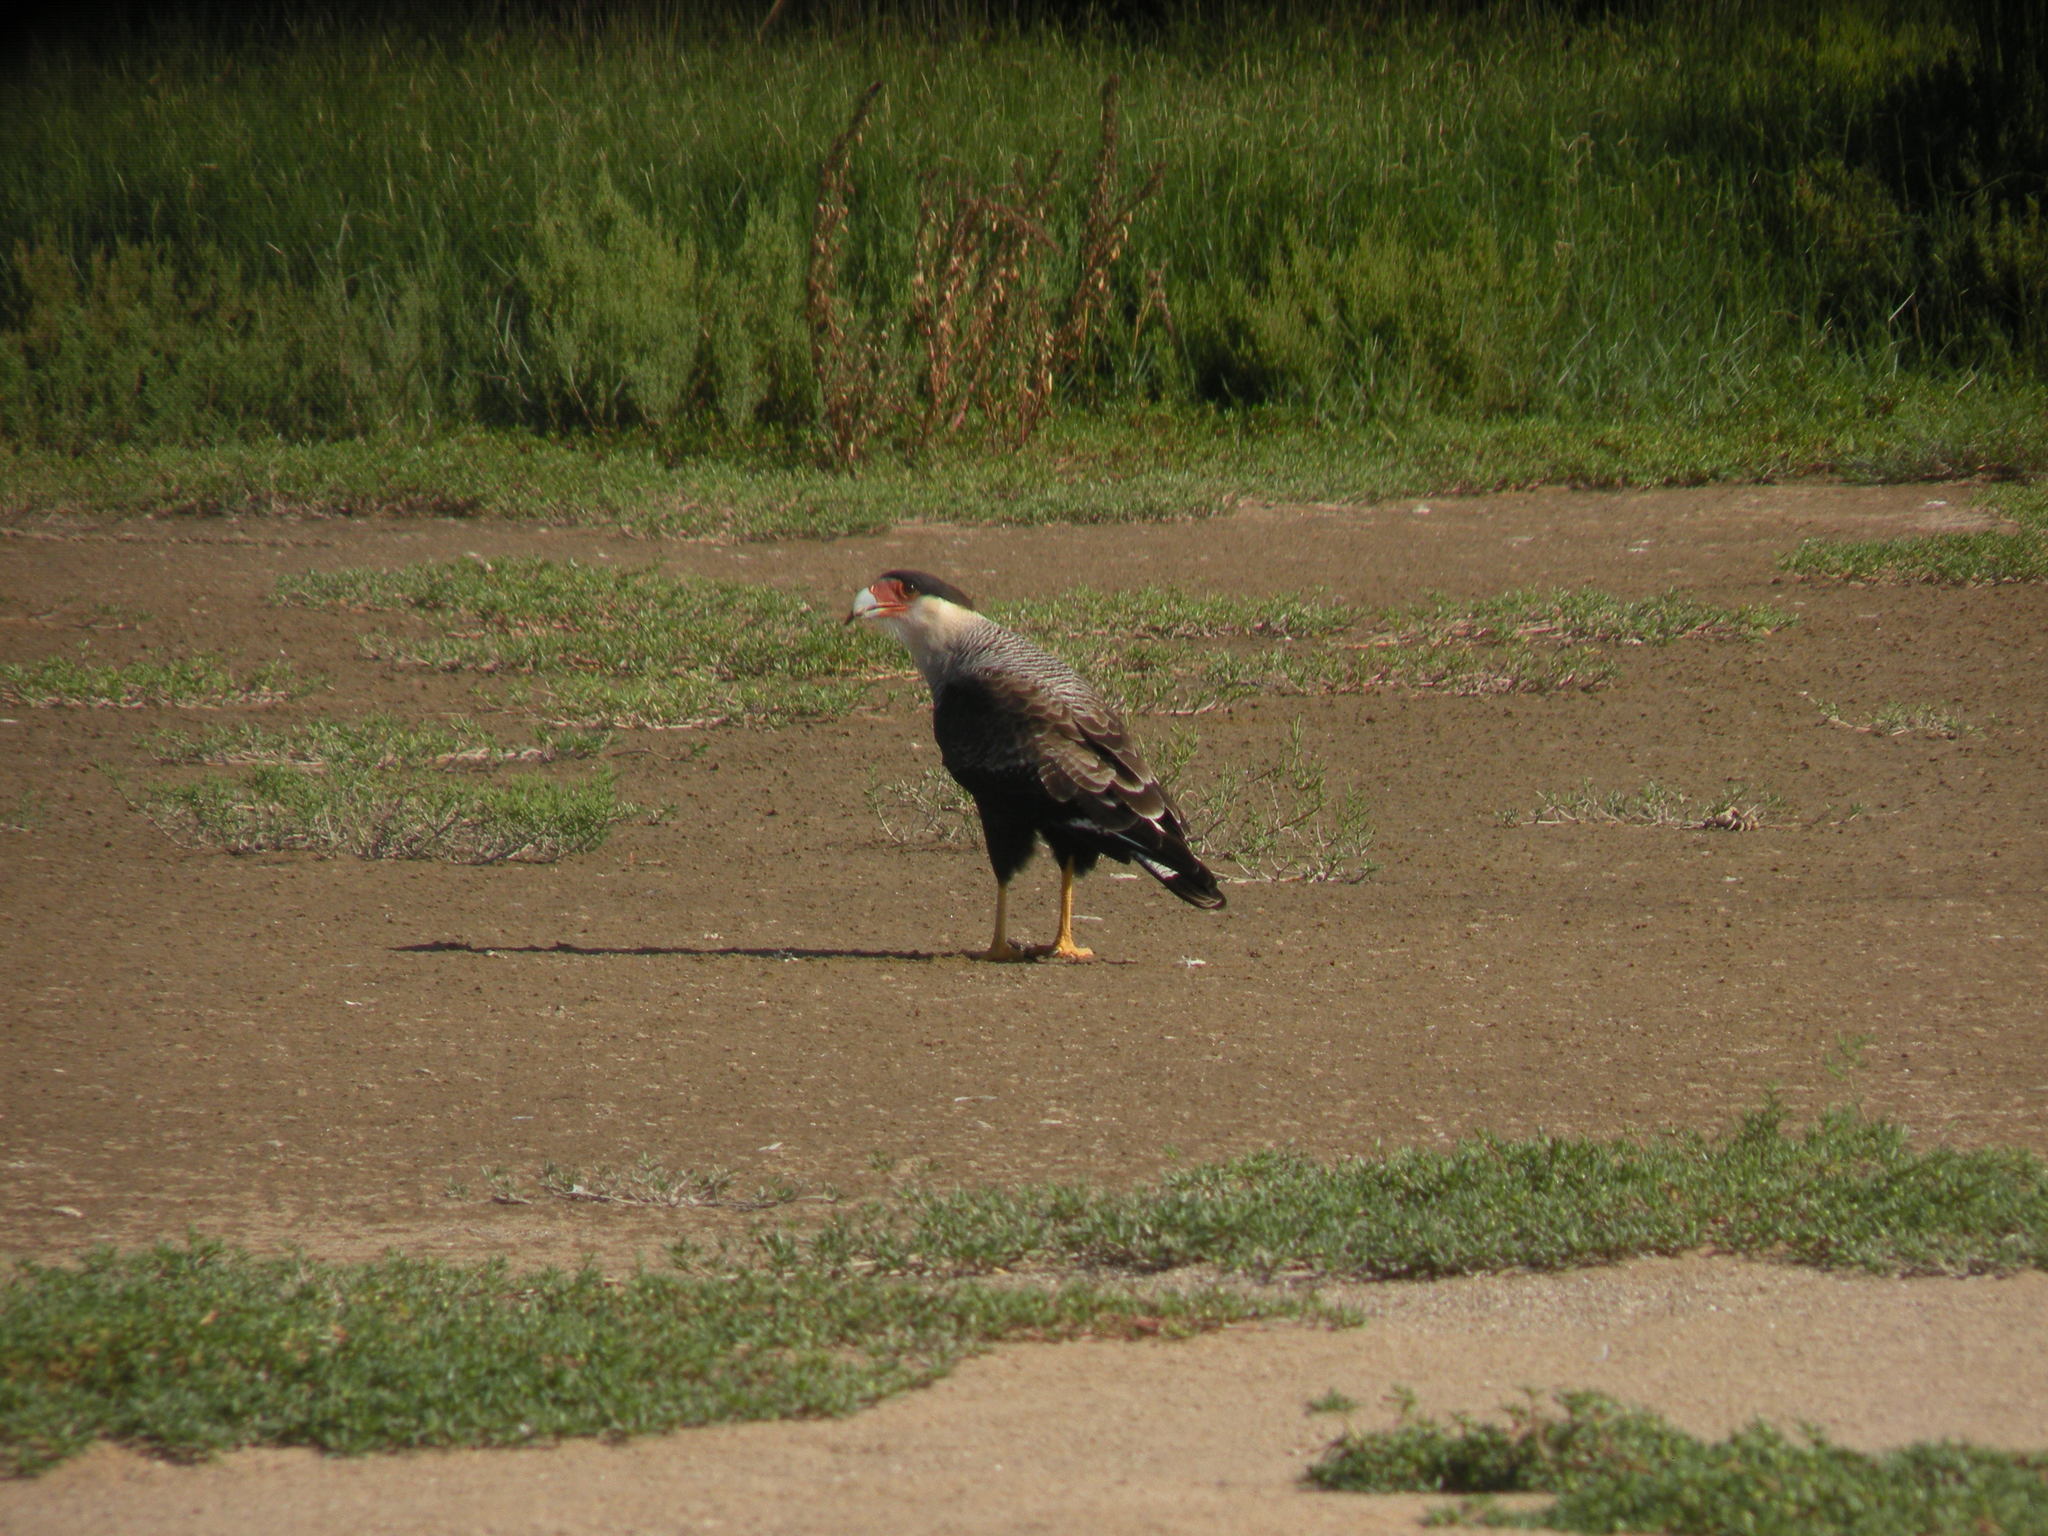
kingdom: Animalia
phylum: Chordata
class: Aves
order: Falconiformes
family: Falconidae
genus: Caracara
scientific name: Caracara plancus
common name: Southern caracara
